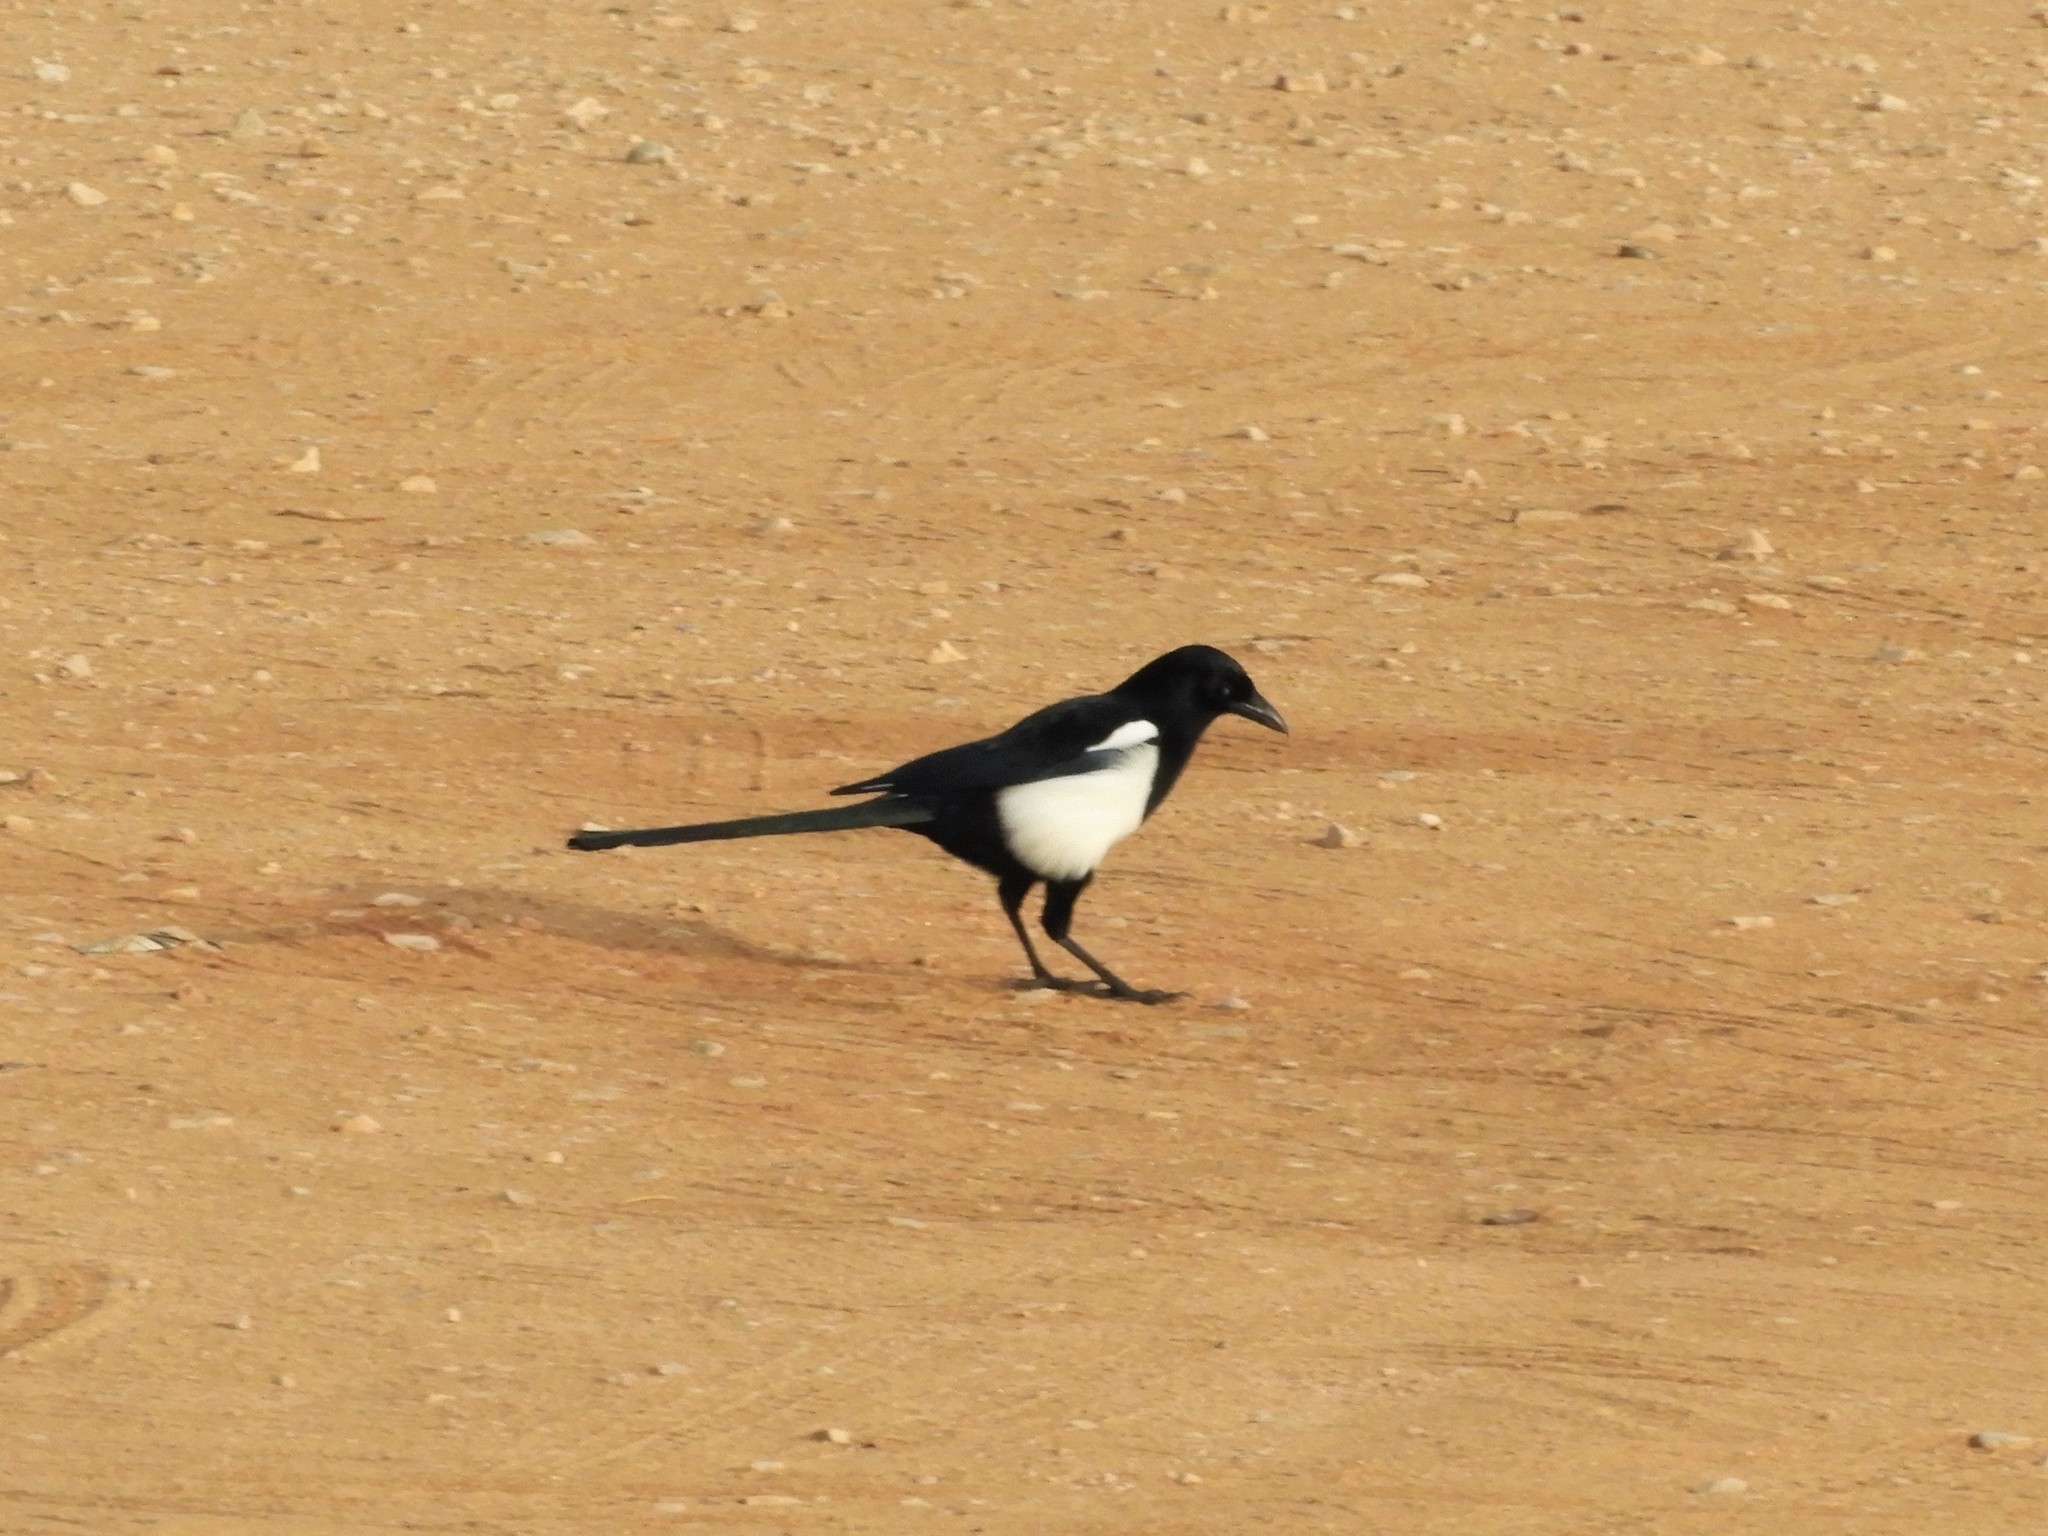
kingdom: Animalia
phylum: Chordata
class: Aves
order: Passeriformes
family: Corvidae
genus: Pica
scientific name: Pica pica
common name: Eurasian magpie
